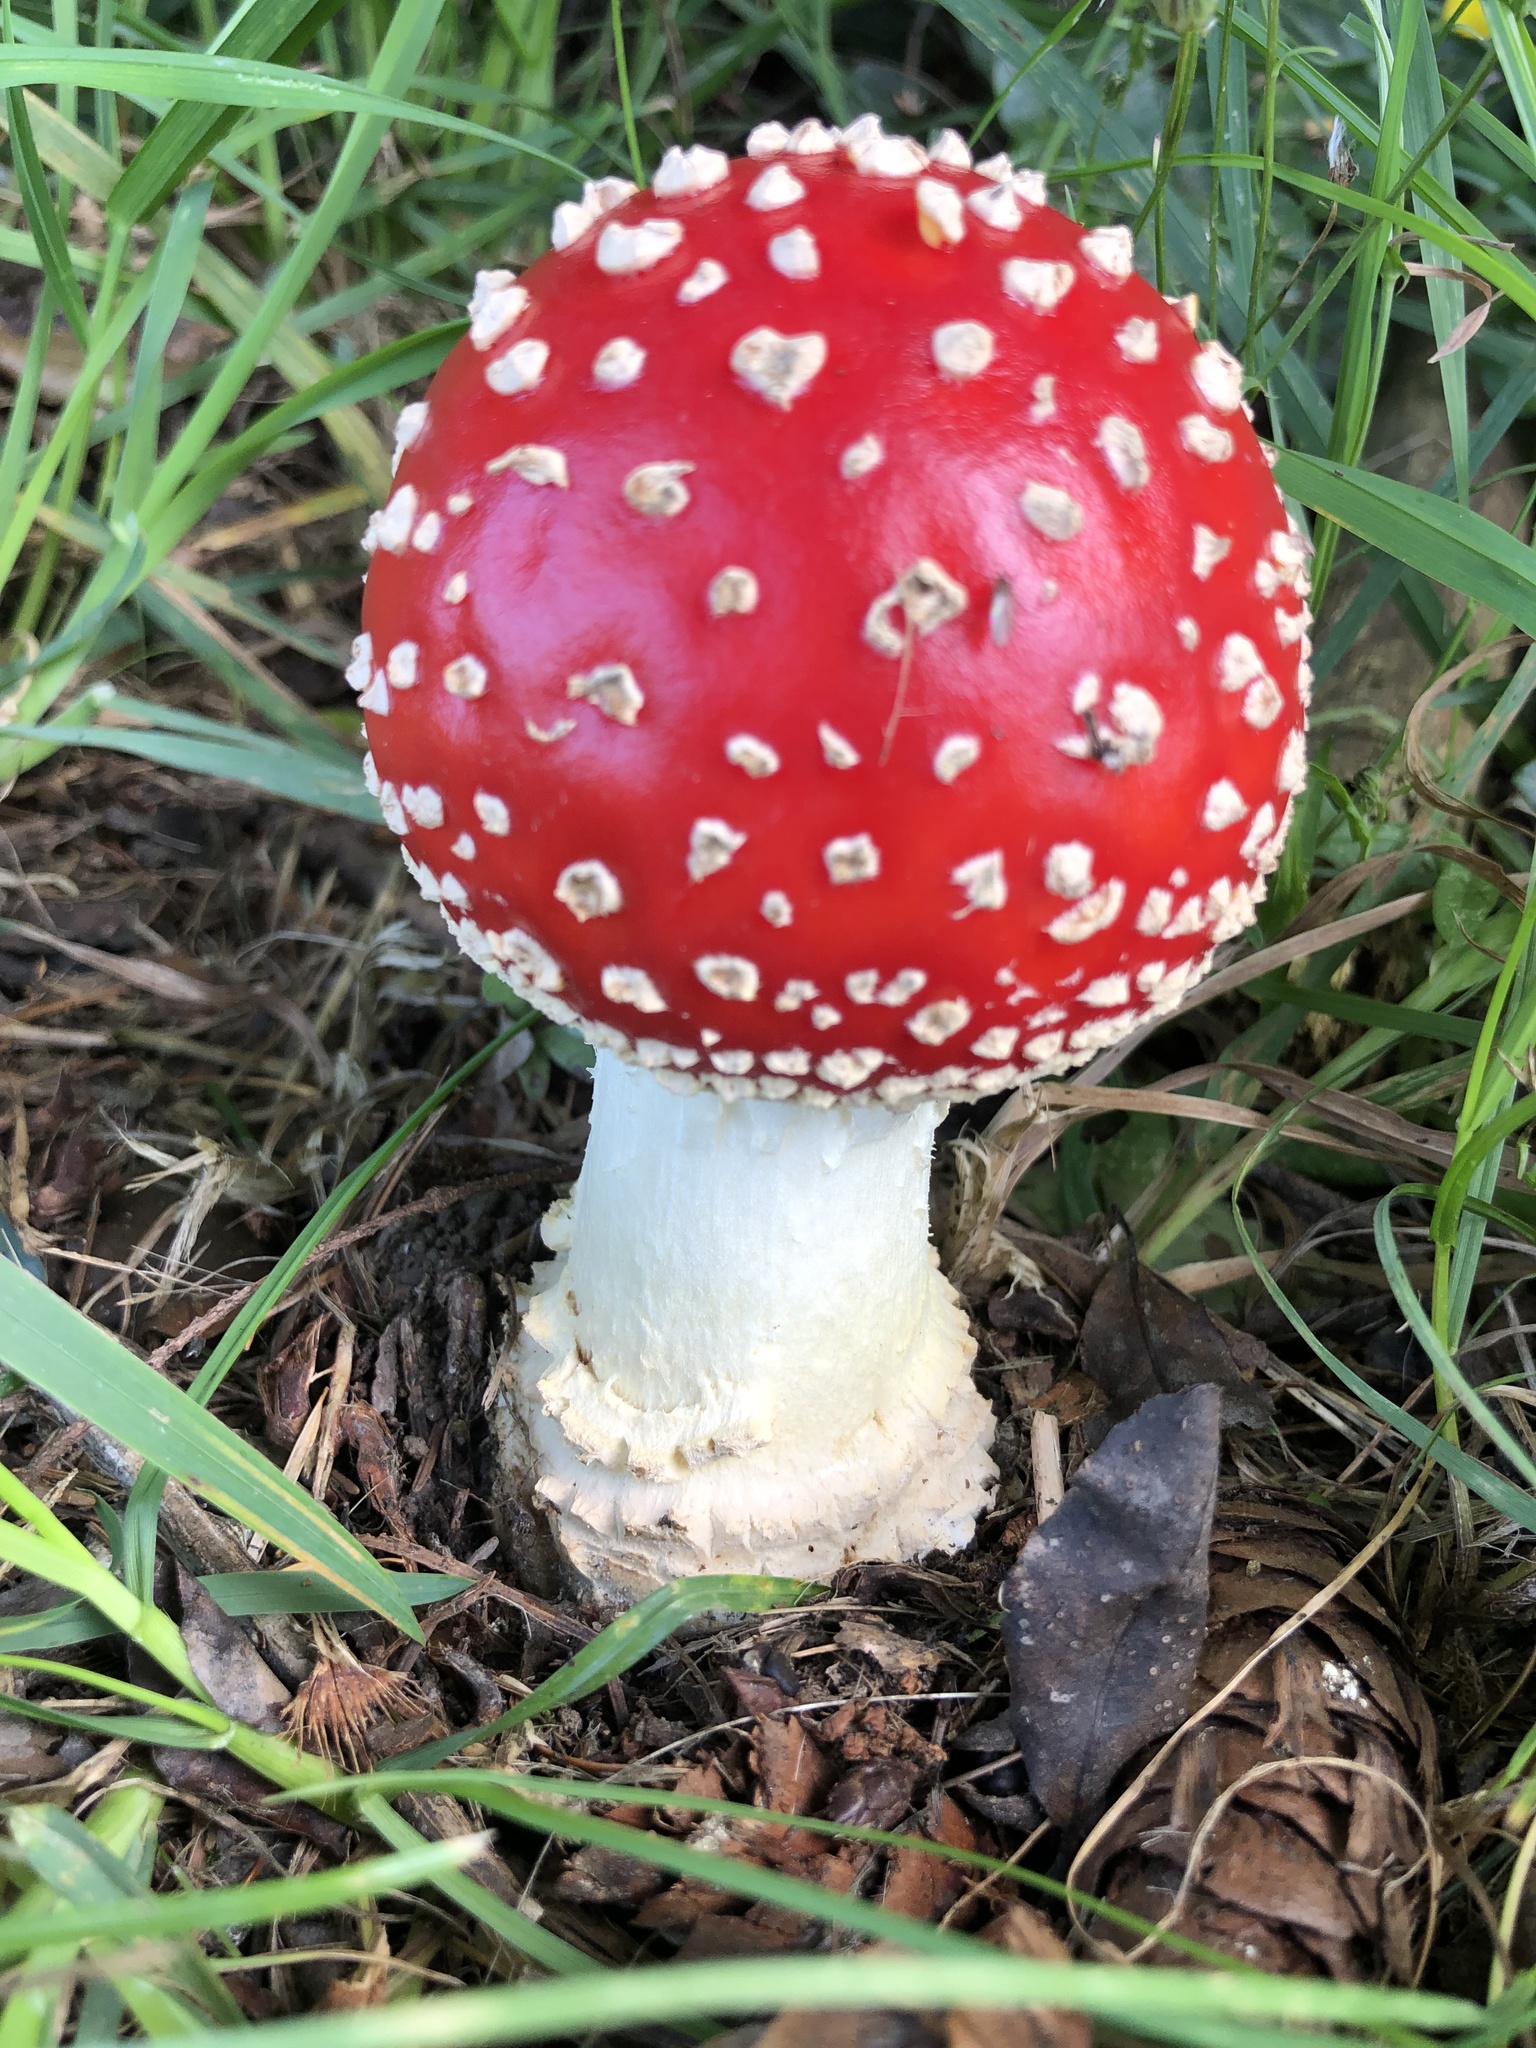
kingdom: Fungi
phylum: Basidiomycota
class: Agaricomycetes
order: Agaricales
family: Amanitaceae
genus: Amanita
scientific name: Amanita muscaria
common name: Fly agaric
